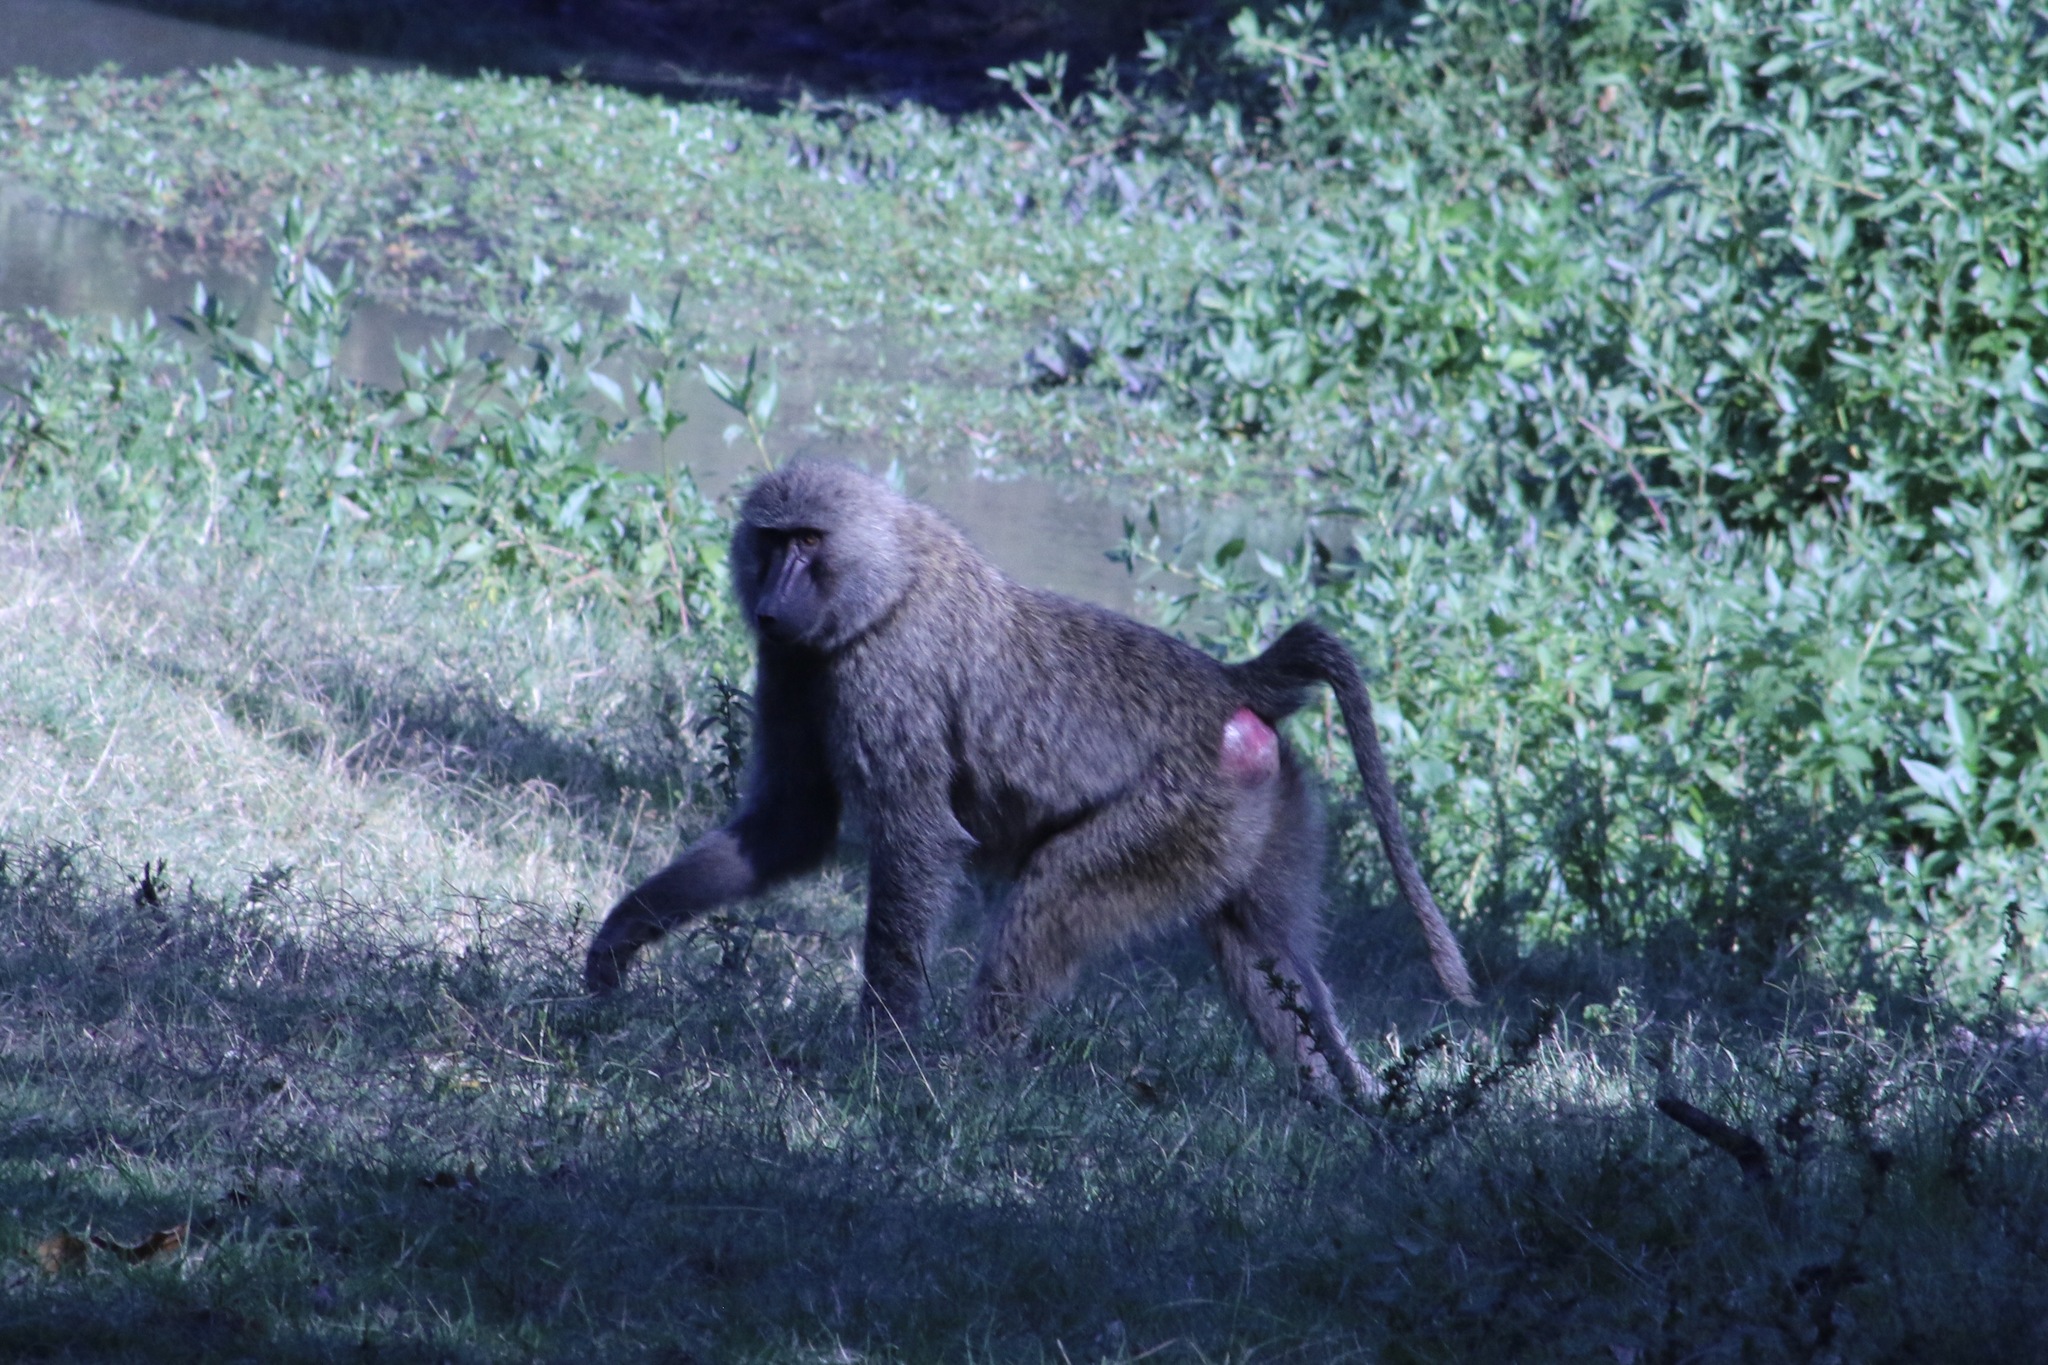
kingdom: Animalia
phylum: Chordata
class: Mammalia
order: Primates
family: Cercopithecidae
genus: Papio
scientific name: Papio anubis
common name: Olive baboon
